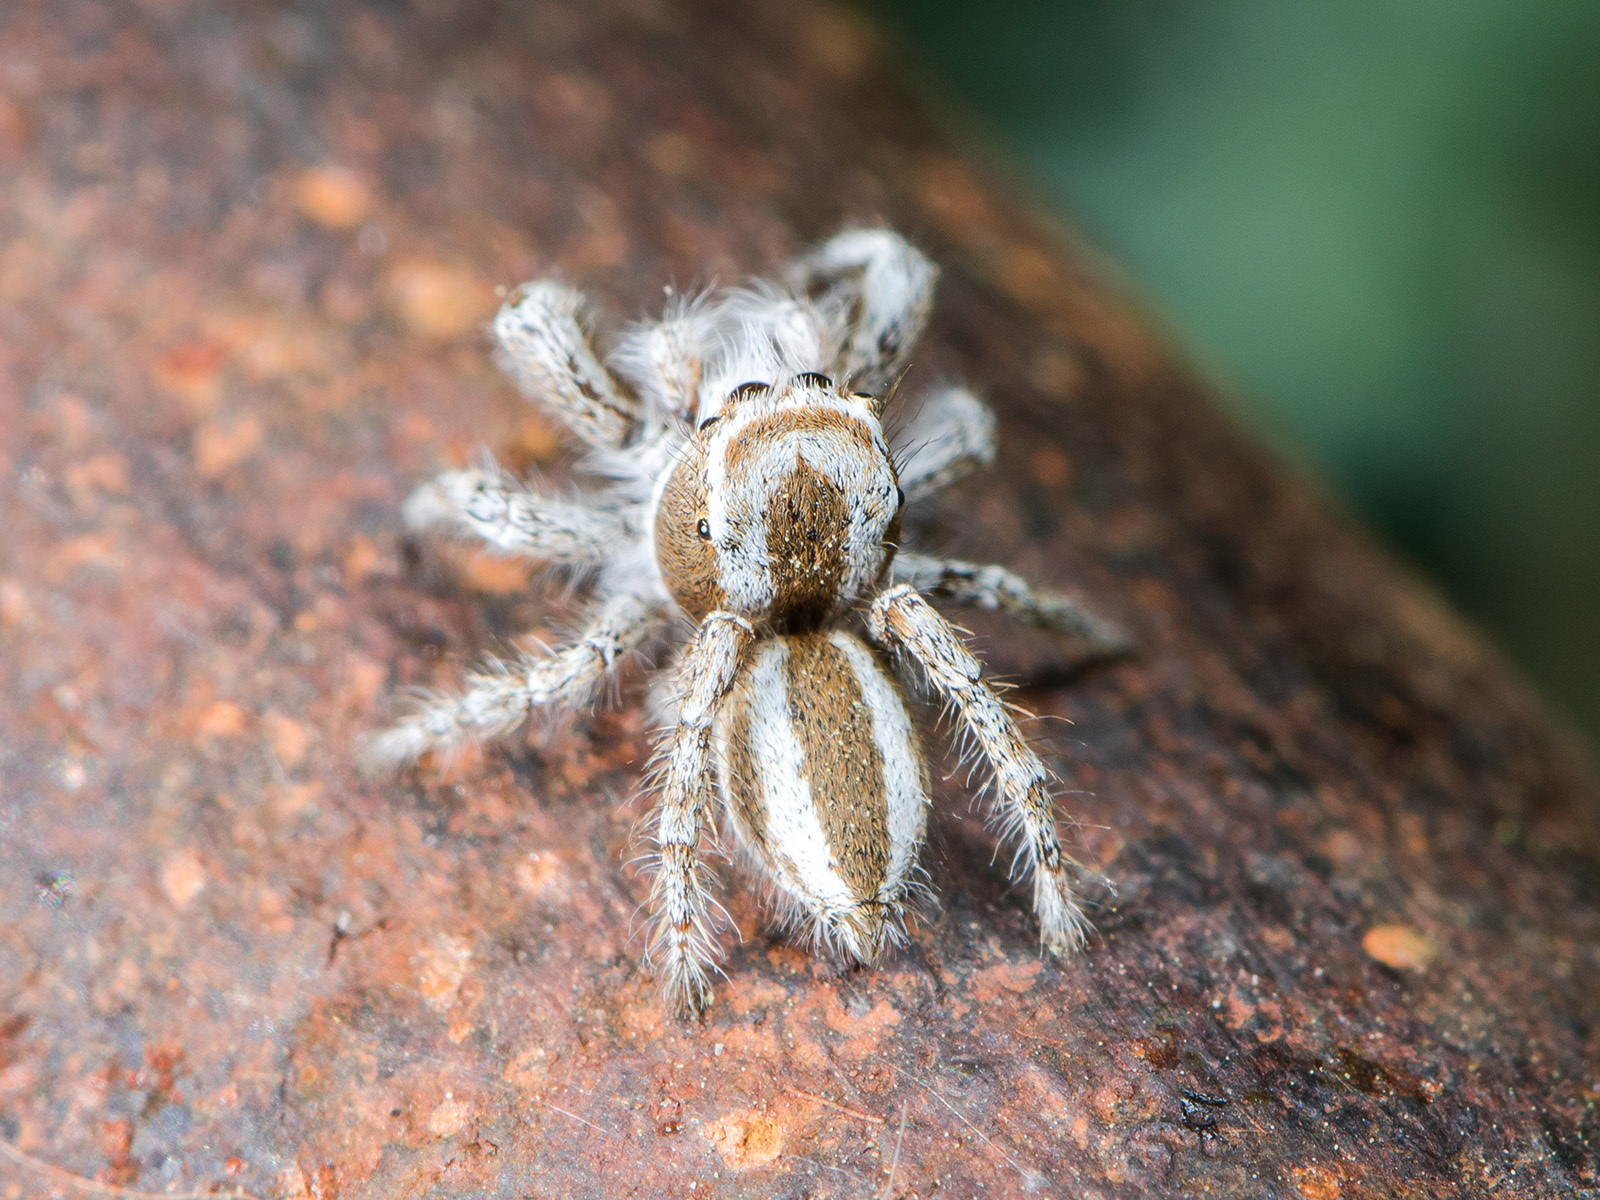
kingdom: Animalia
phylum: Arthropoda
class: Arachnida
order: Araneae
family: Salticidae
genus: Pseudomogrus
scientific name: Pseudomogrus validus
